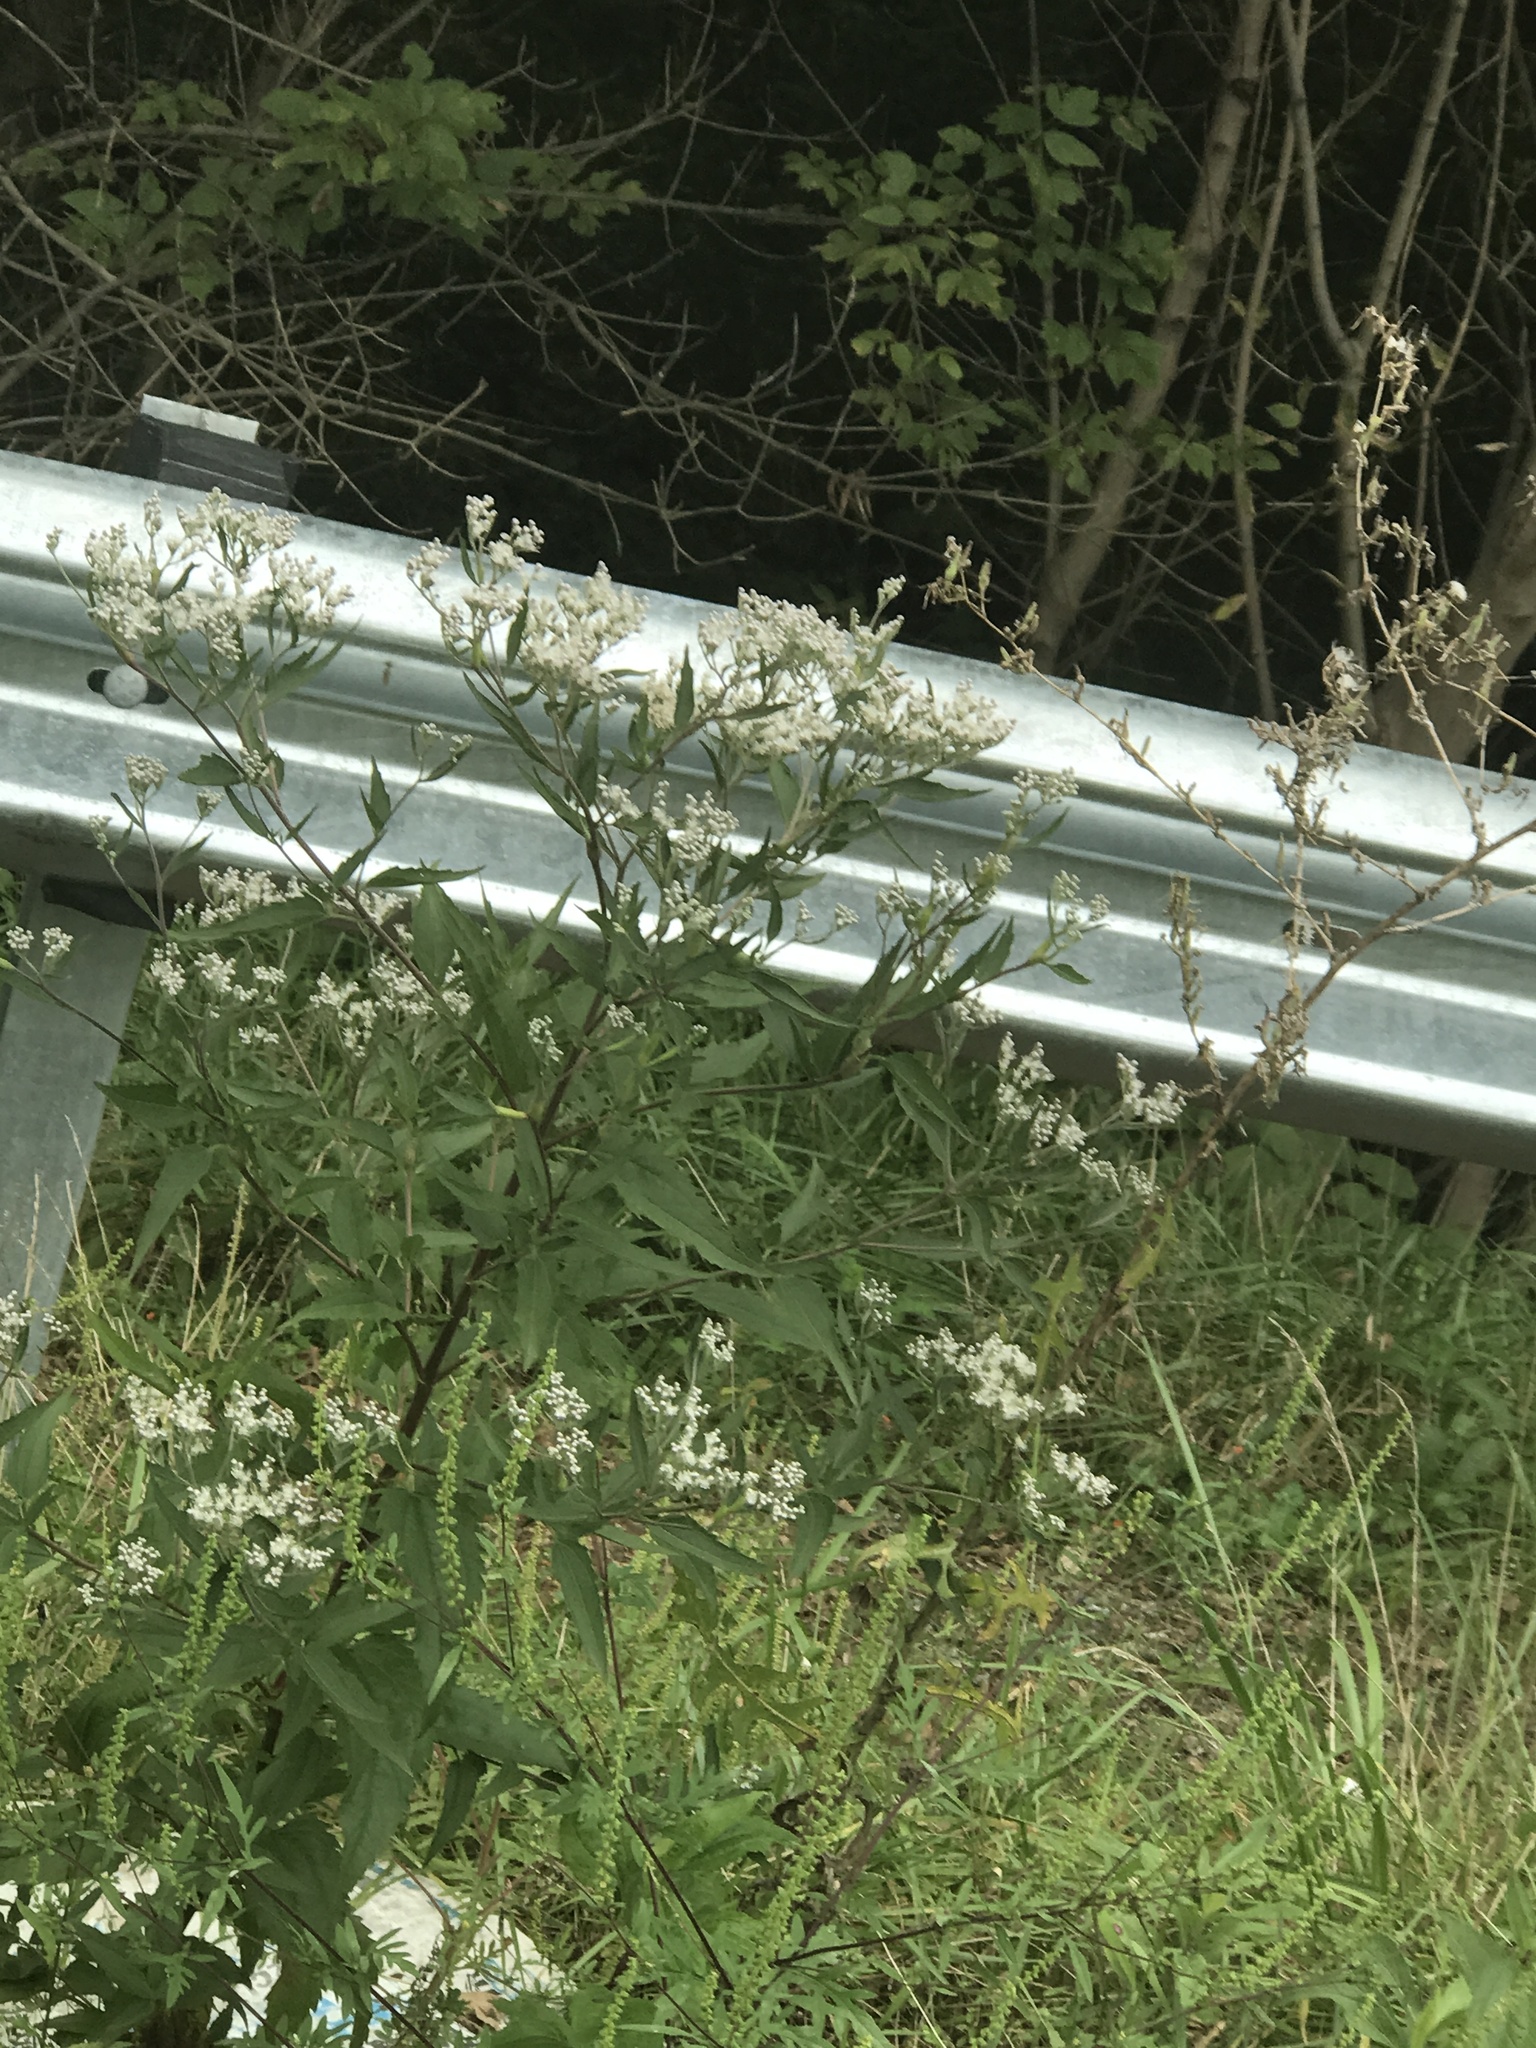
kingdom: Plantae
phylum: Tracheophyta
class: Magnoliopsida
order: Asterales
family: Asteraceae
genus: Eupatorium
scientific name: Eupatorium serotinum
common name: Late boneset
